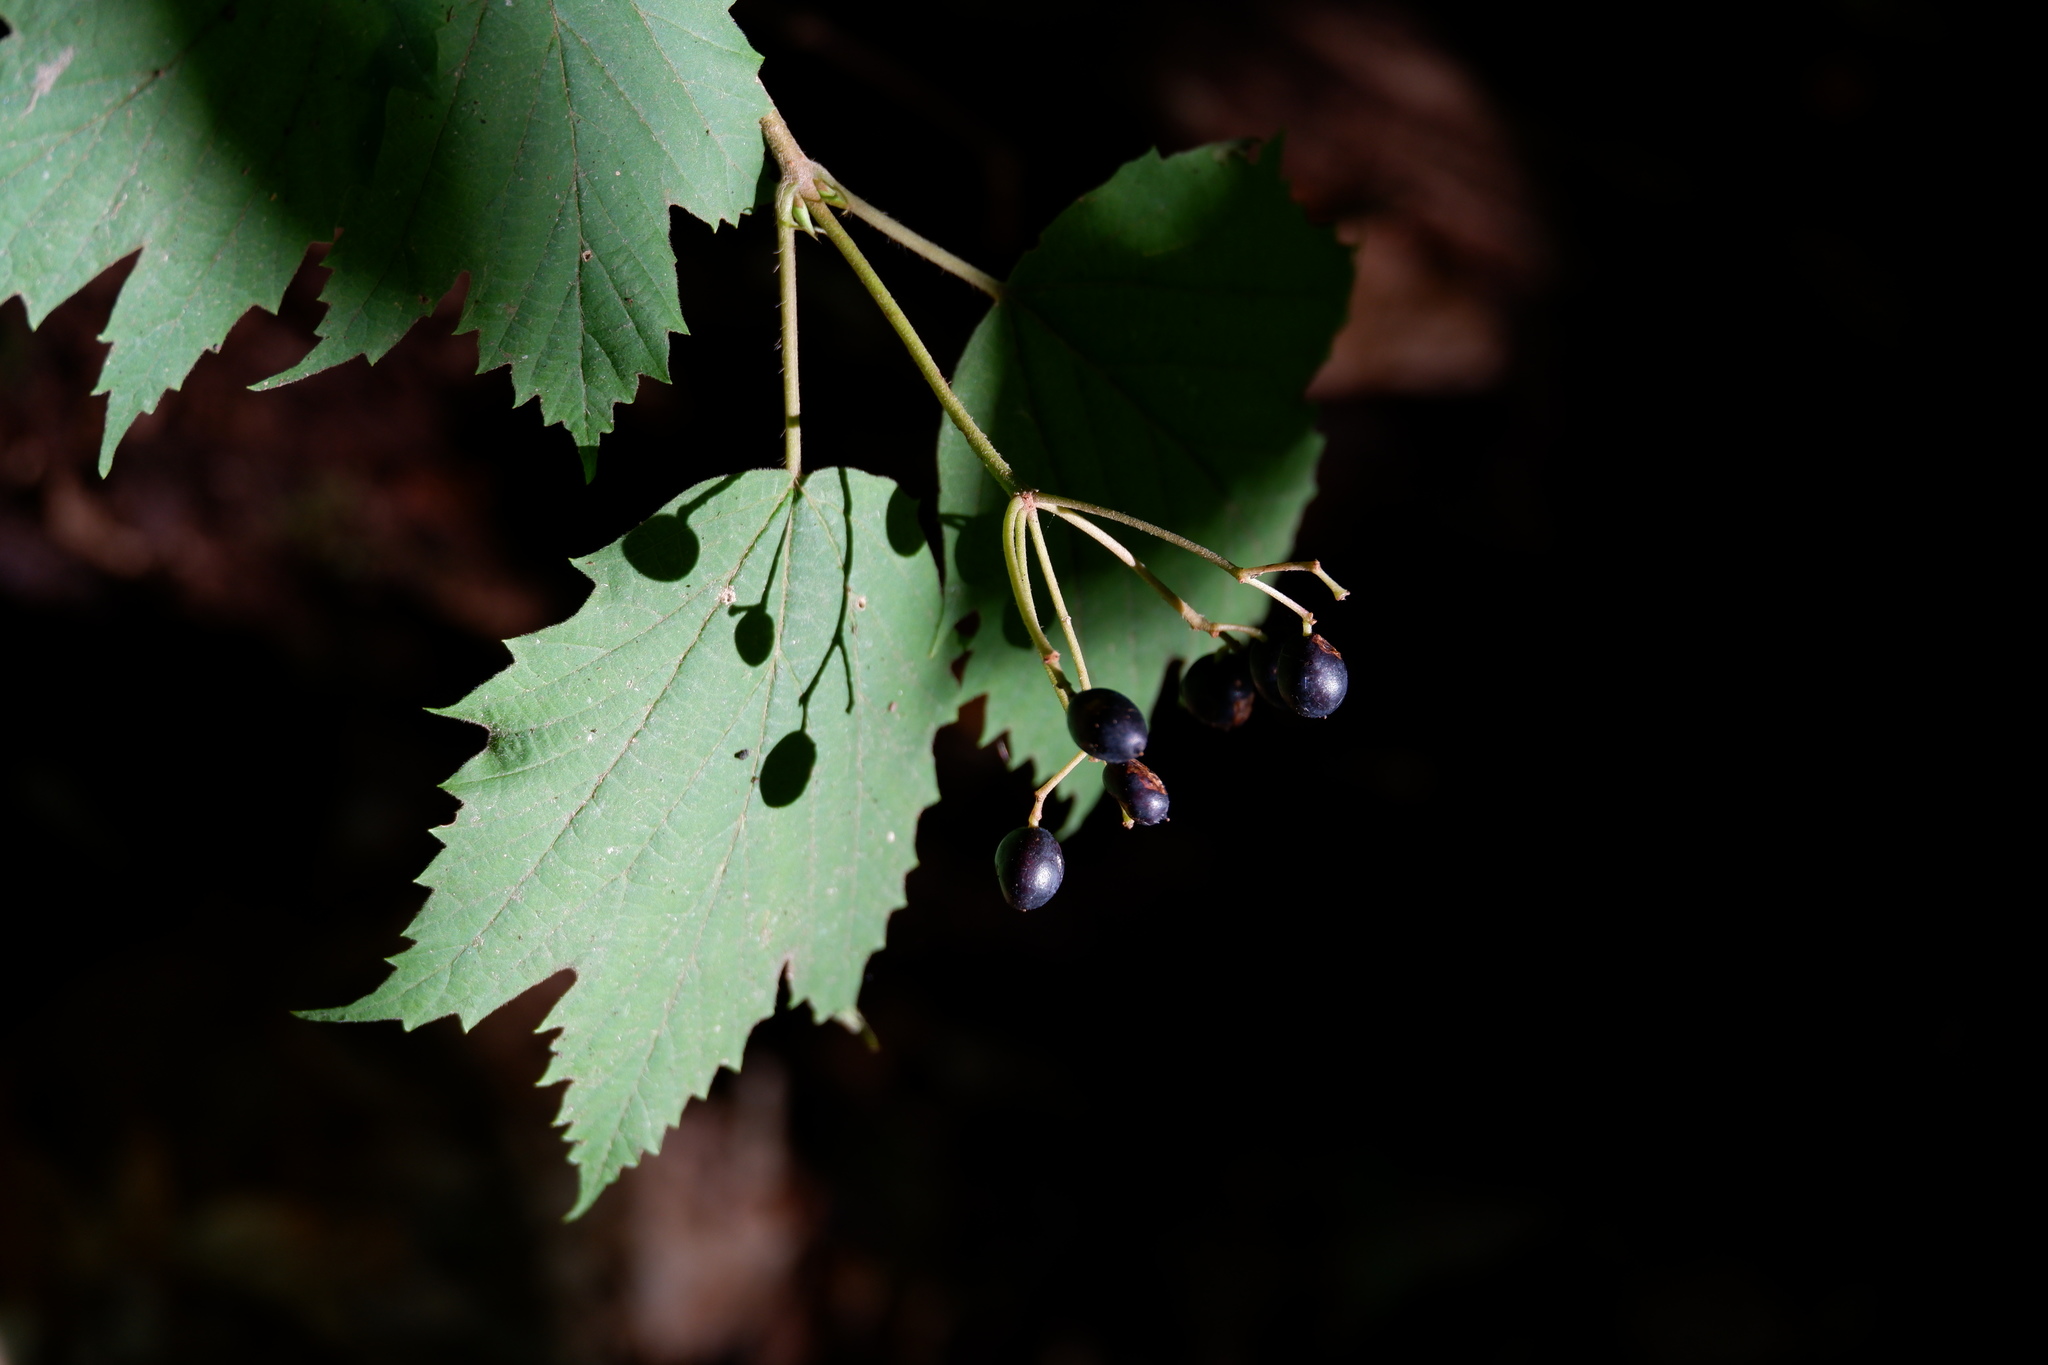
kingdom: Plantae
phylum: Tracheophyta
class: Magnoliopsida
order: Dipsacales
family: Viburnaceae
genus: Viburnum
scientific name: Viburnum acerifolium
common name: Dockmackie
